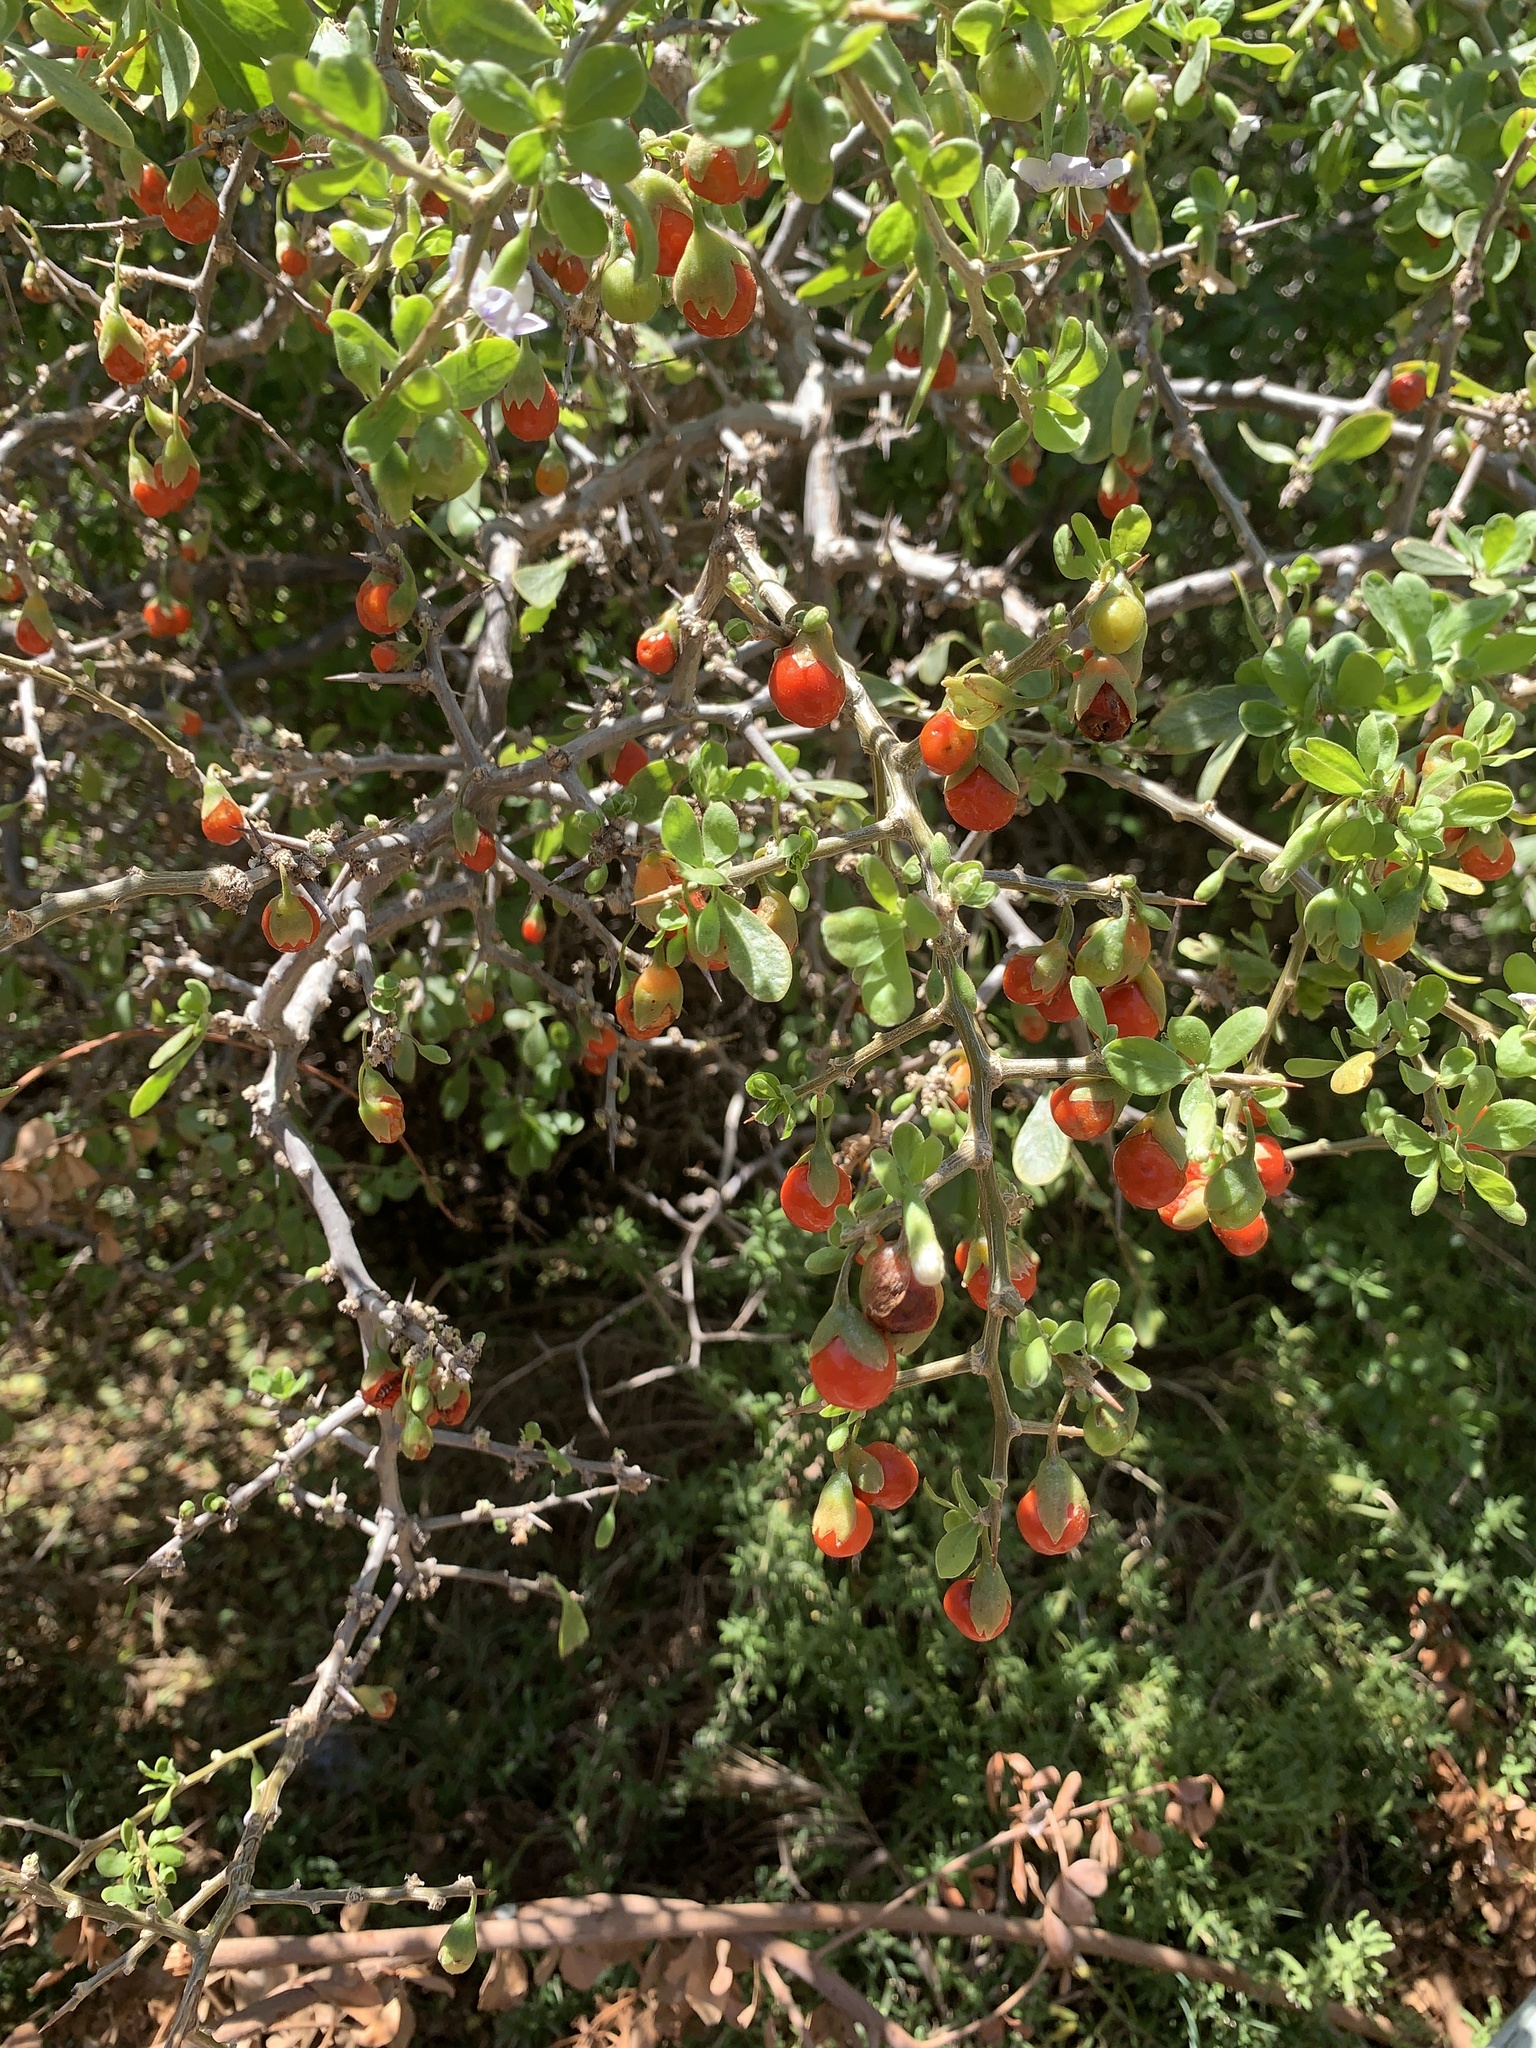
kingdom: Plantae
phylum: Tracheophyta
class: Magnoliopsida
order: Solanales
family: Solanaceae
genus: Lycium
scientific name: Lycium ferocissimum
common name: African boxthorn
